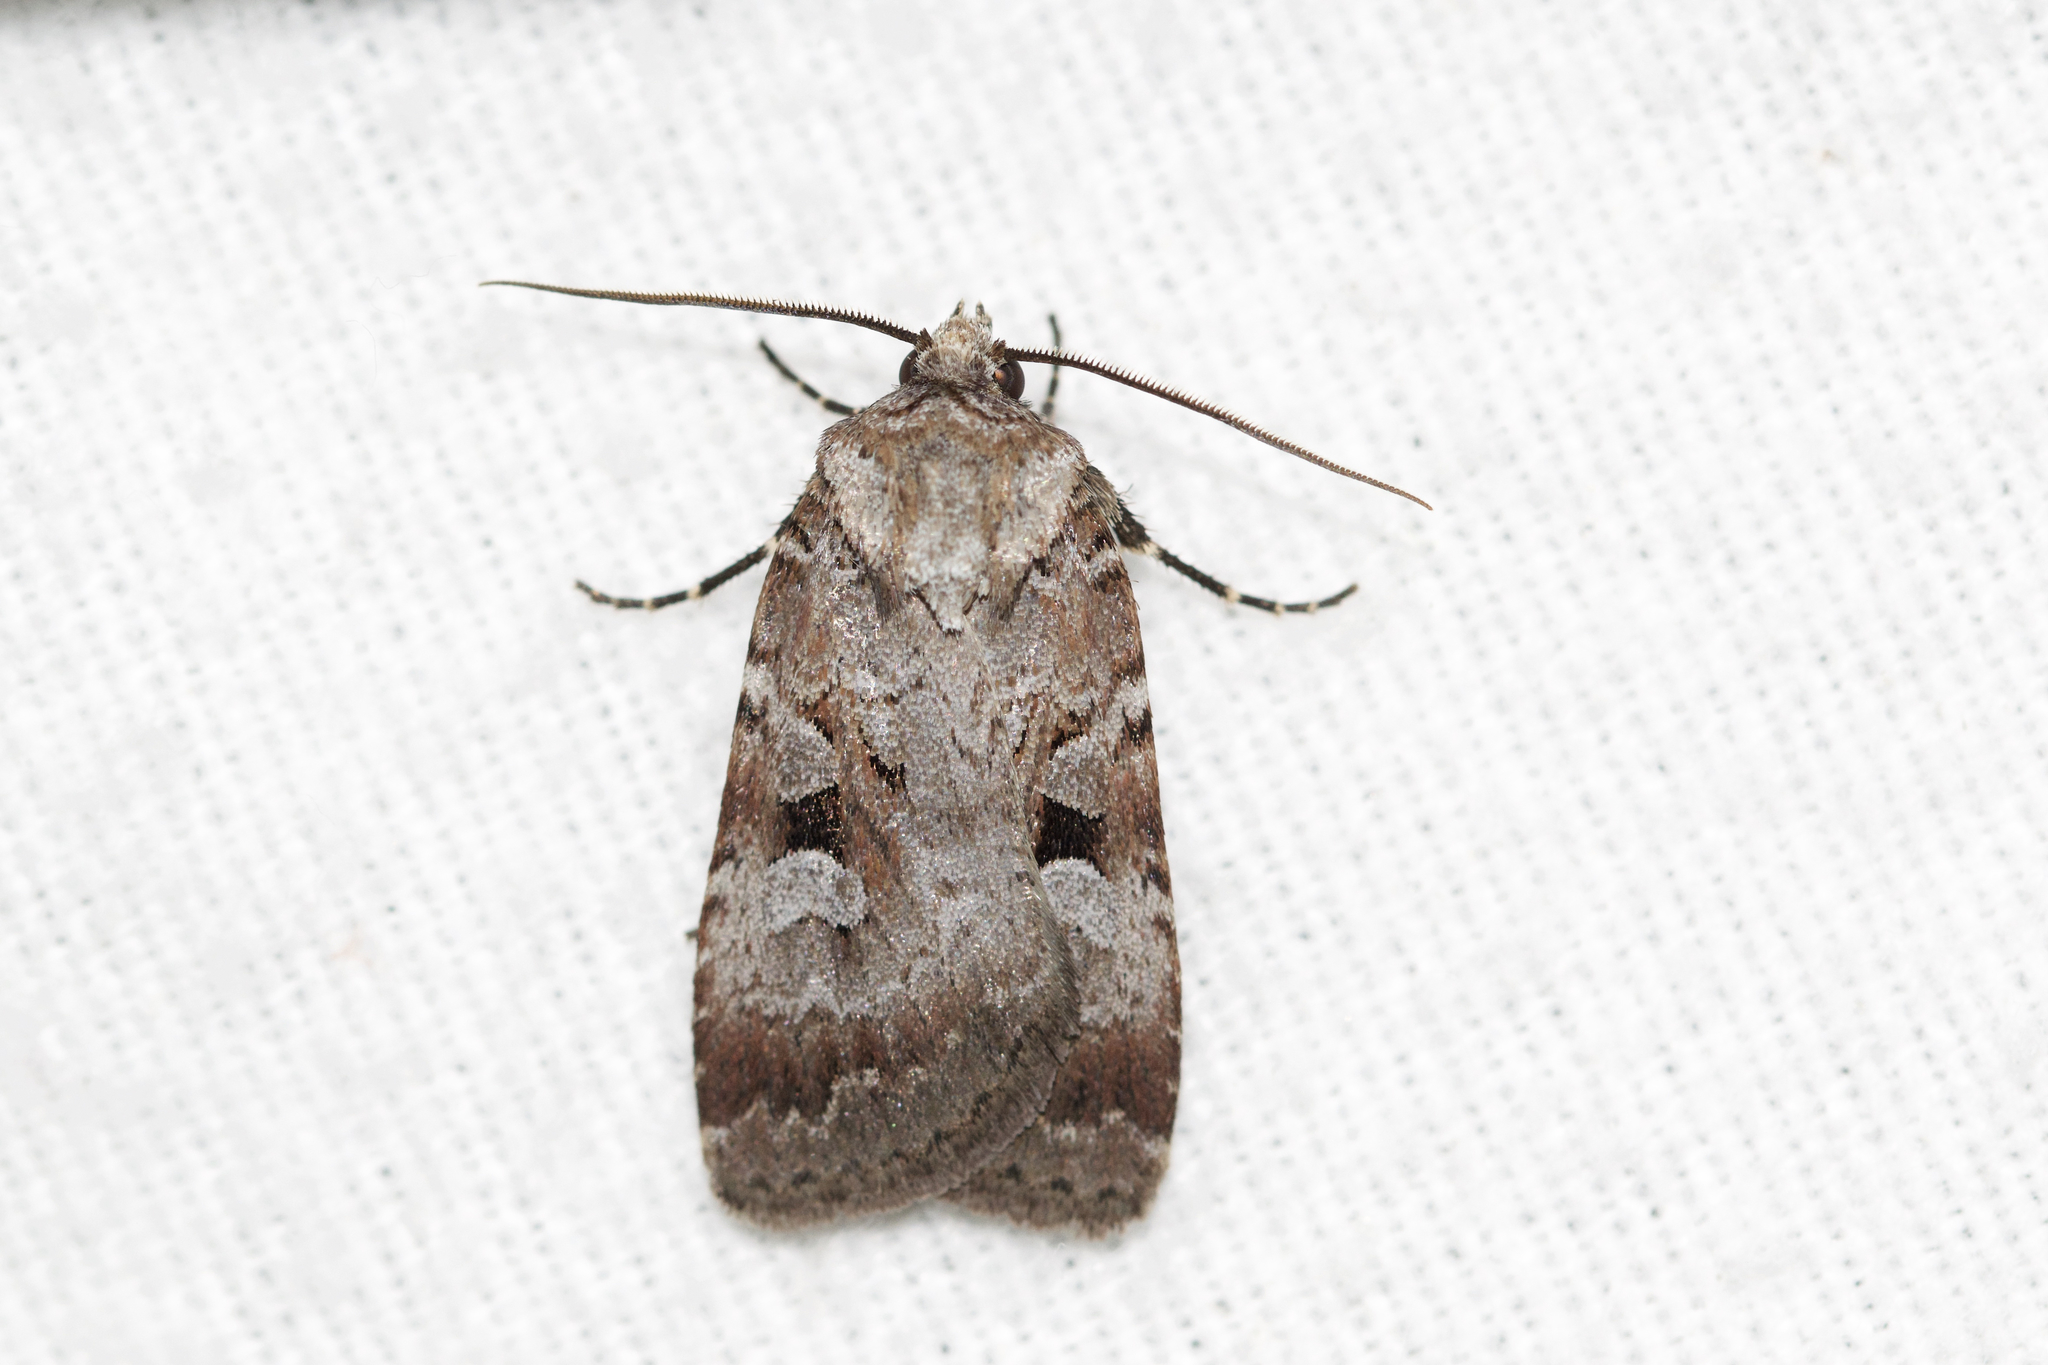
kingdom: Animalia
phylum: Arthropoda
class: Insecta
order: Lepidoptera
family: Noctuidae
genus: Feltia
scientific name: Feltia geniculata
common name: Knee-joint dart
